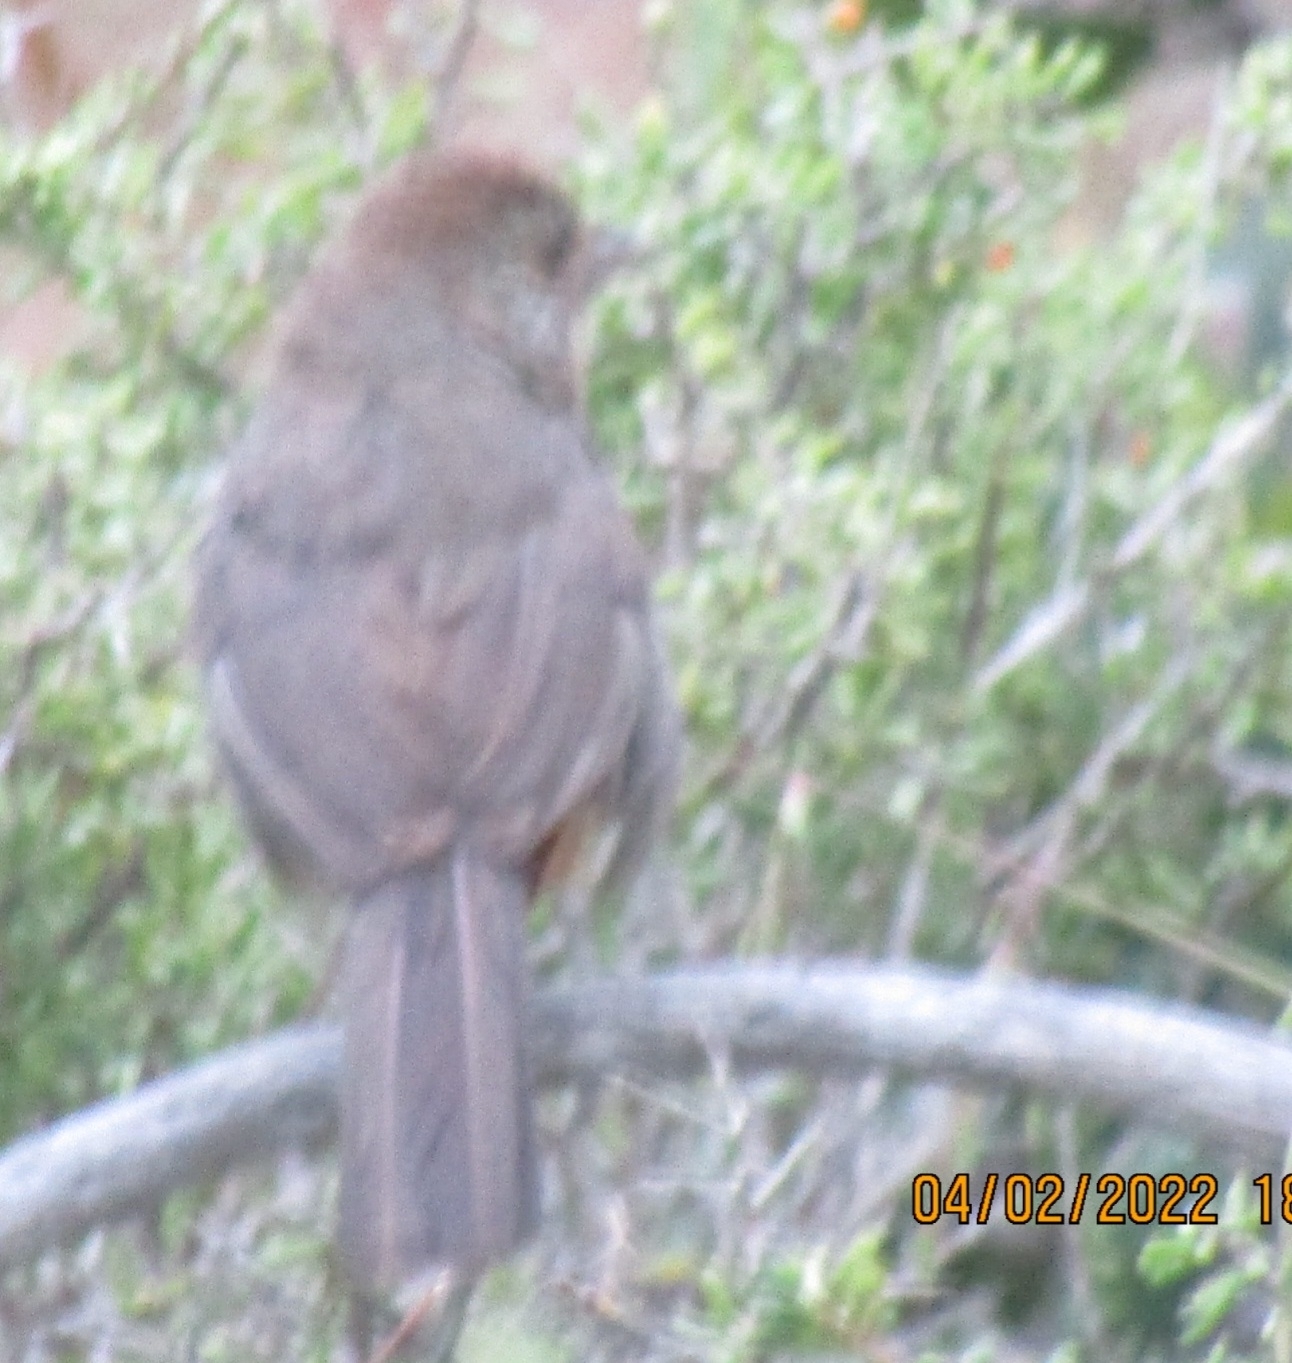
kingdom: Animalia
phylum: Chordata
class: Aves
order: Passeriformes
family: Passerellidae
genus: Melozone
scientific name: Melozone crissalis
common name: California towhee
